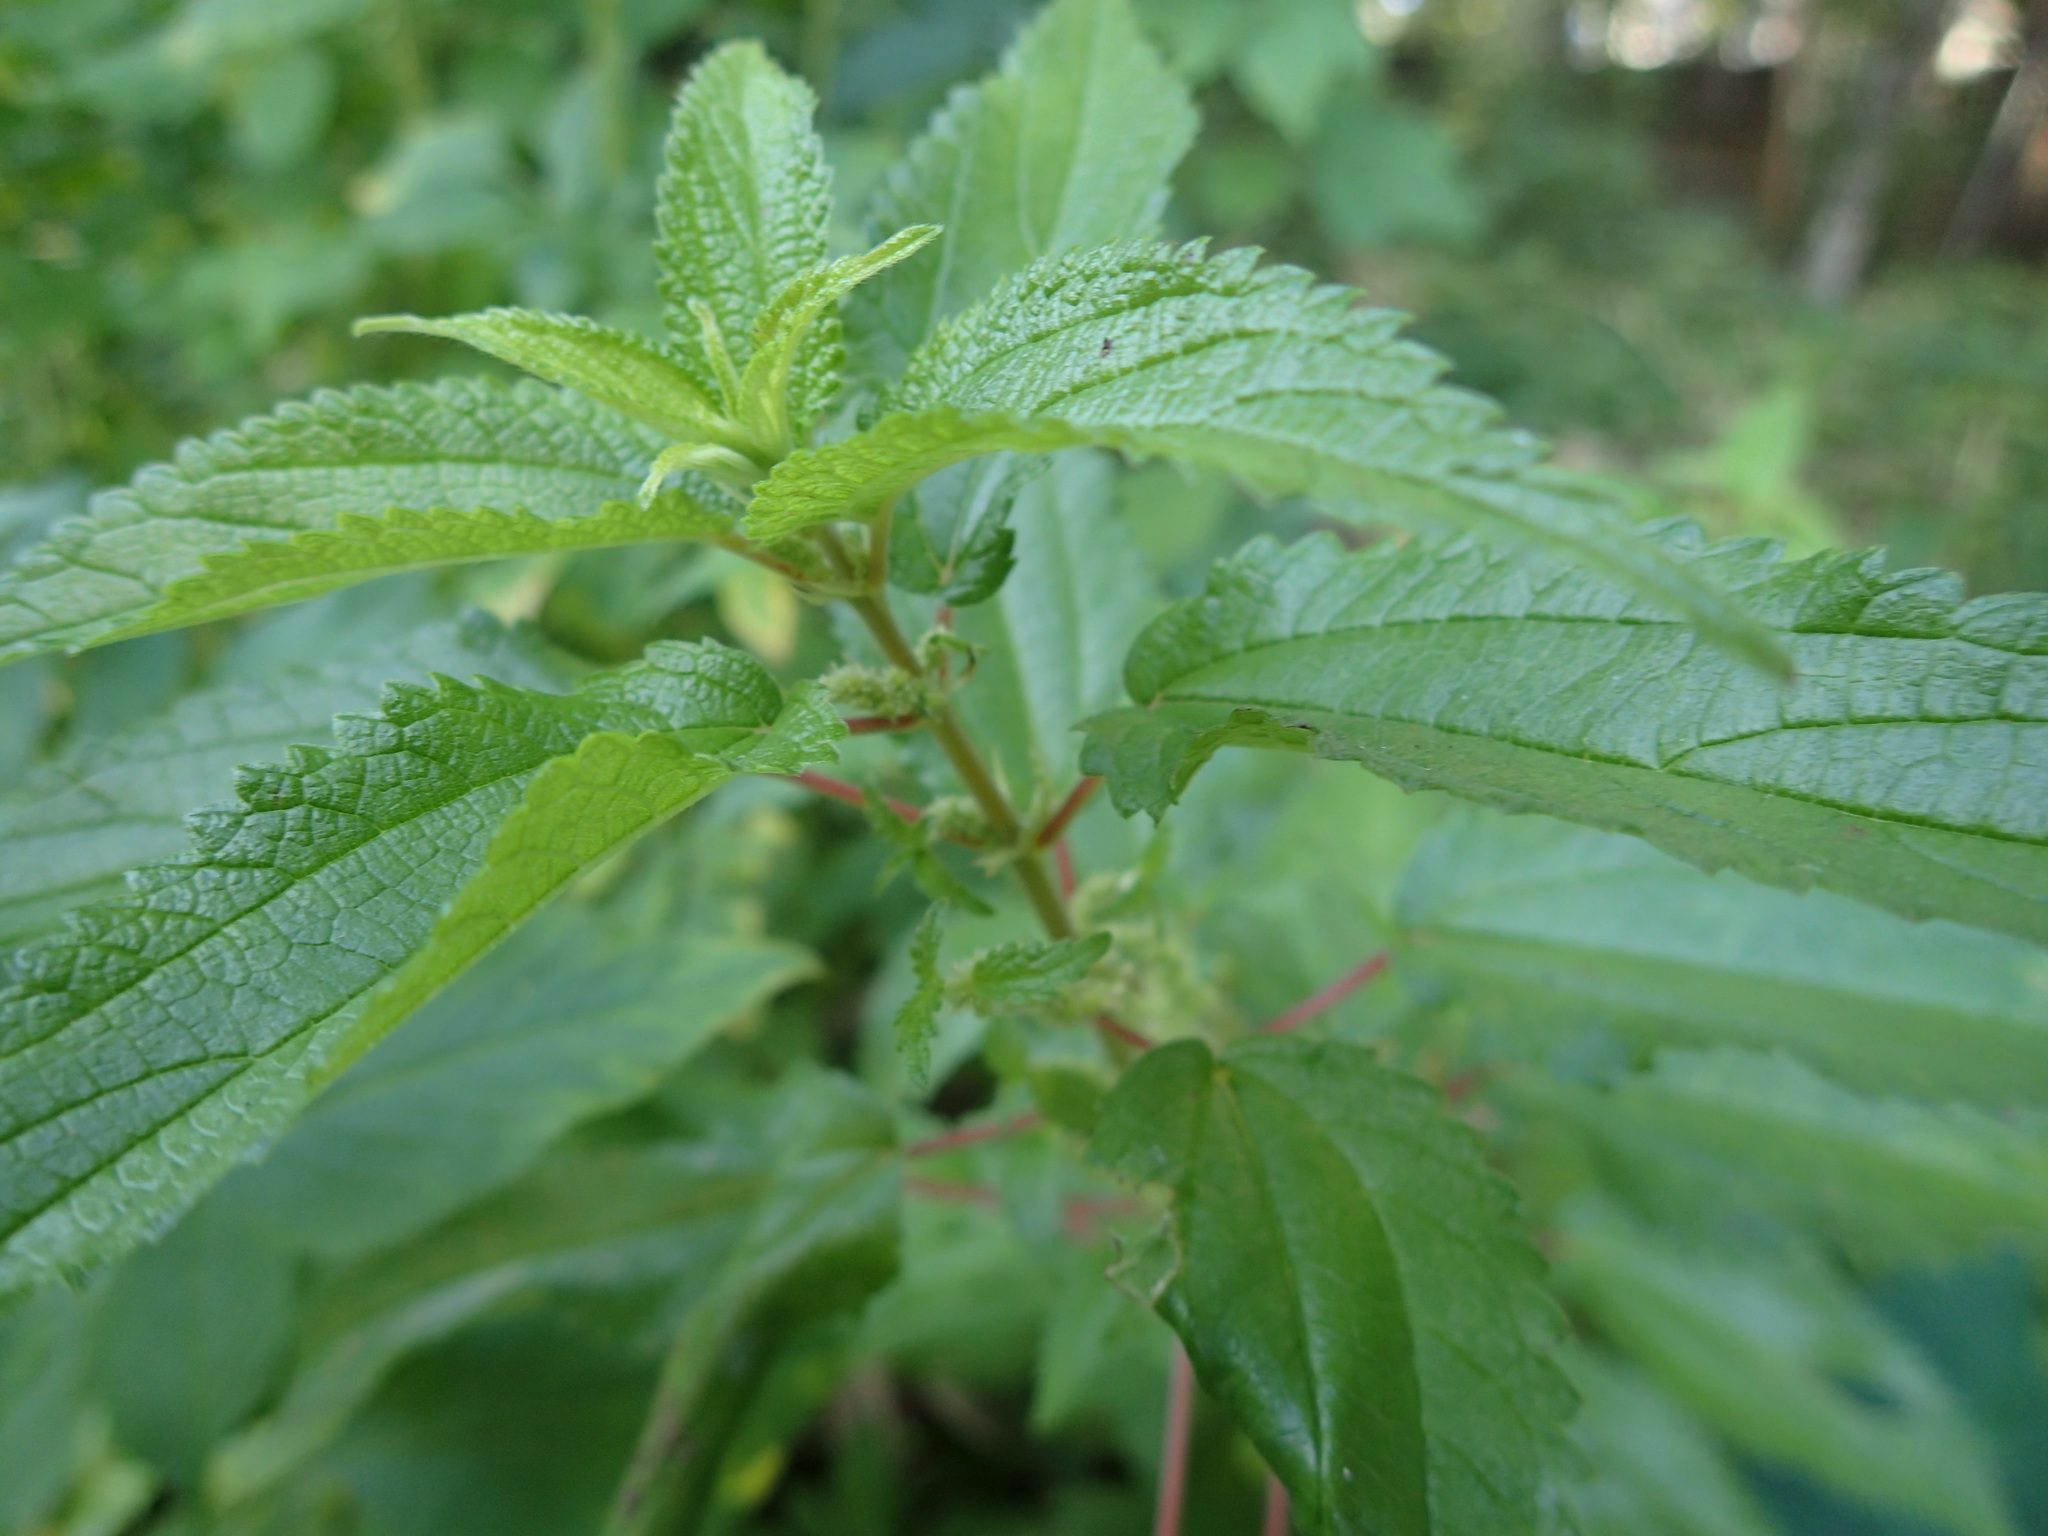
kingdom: Plantae
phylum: Tracheophyta
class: Magnoliopsida
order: Rosales
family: Urticaceae
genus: Boehmeria
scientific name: Boehmeria cylindrica
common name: Bog-hemp
